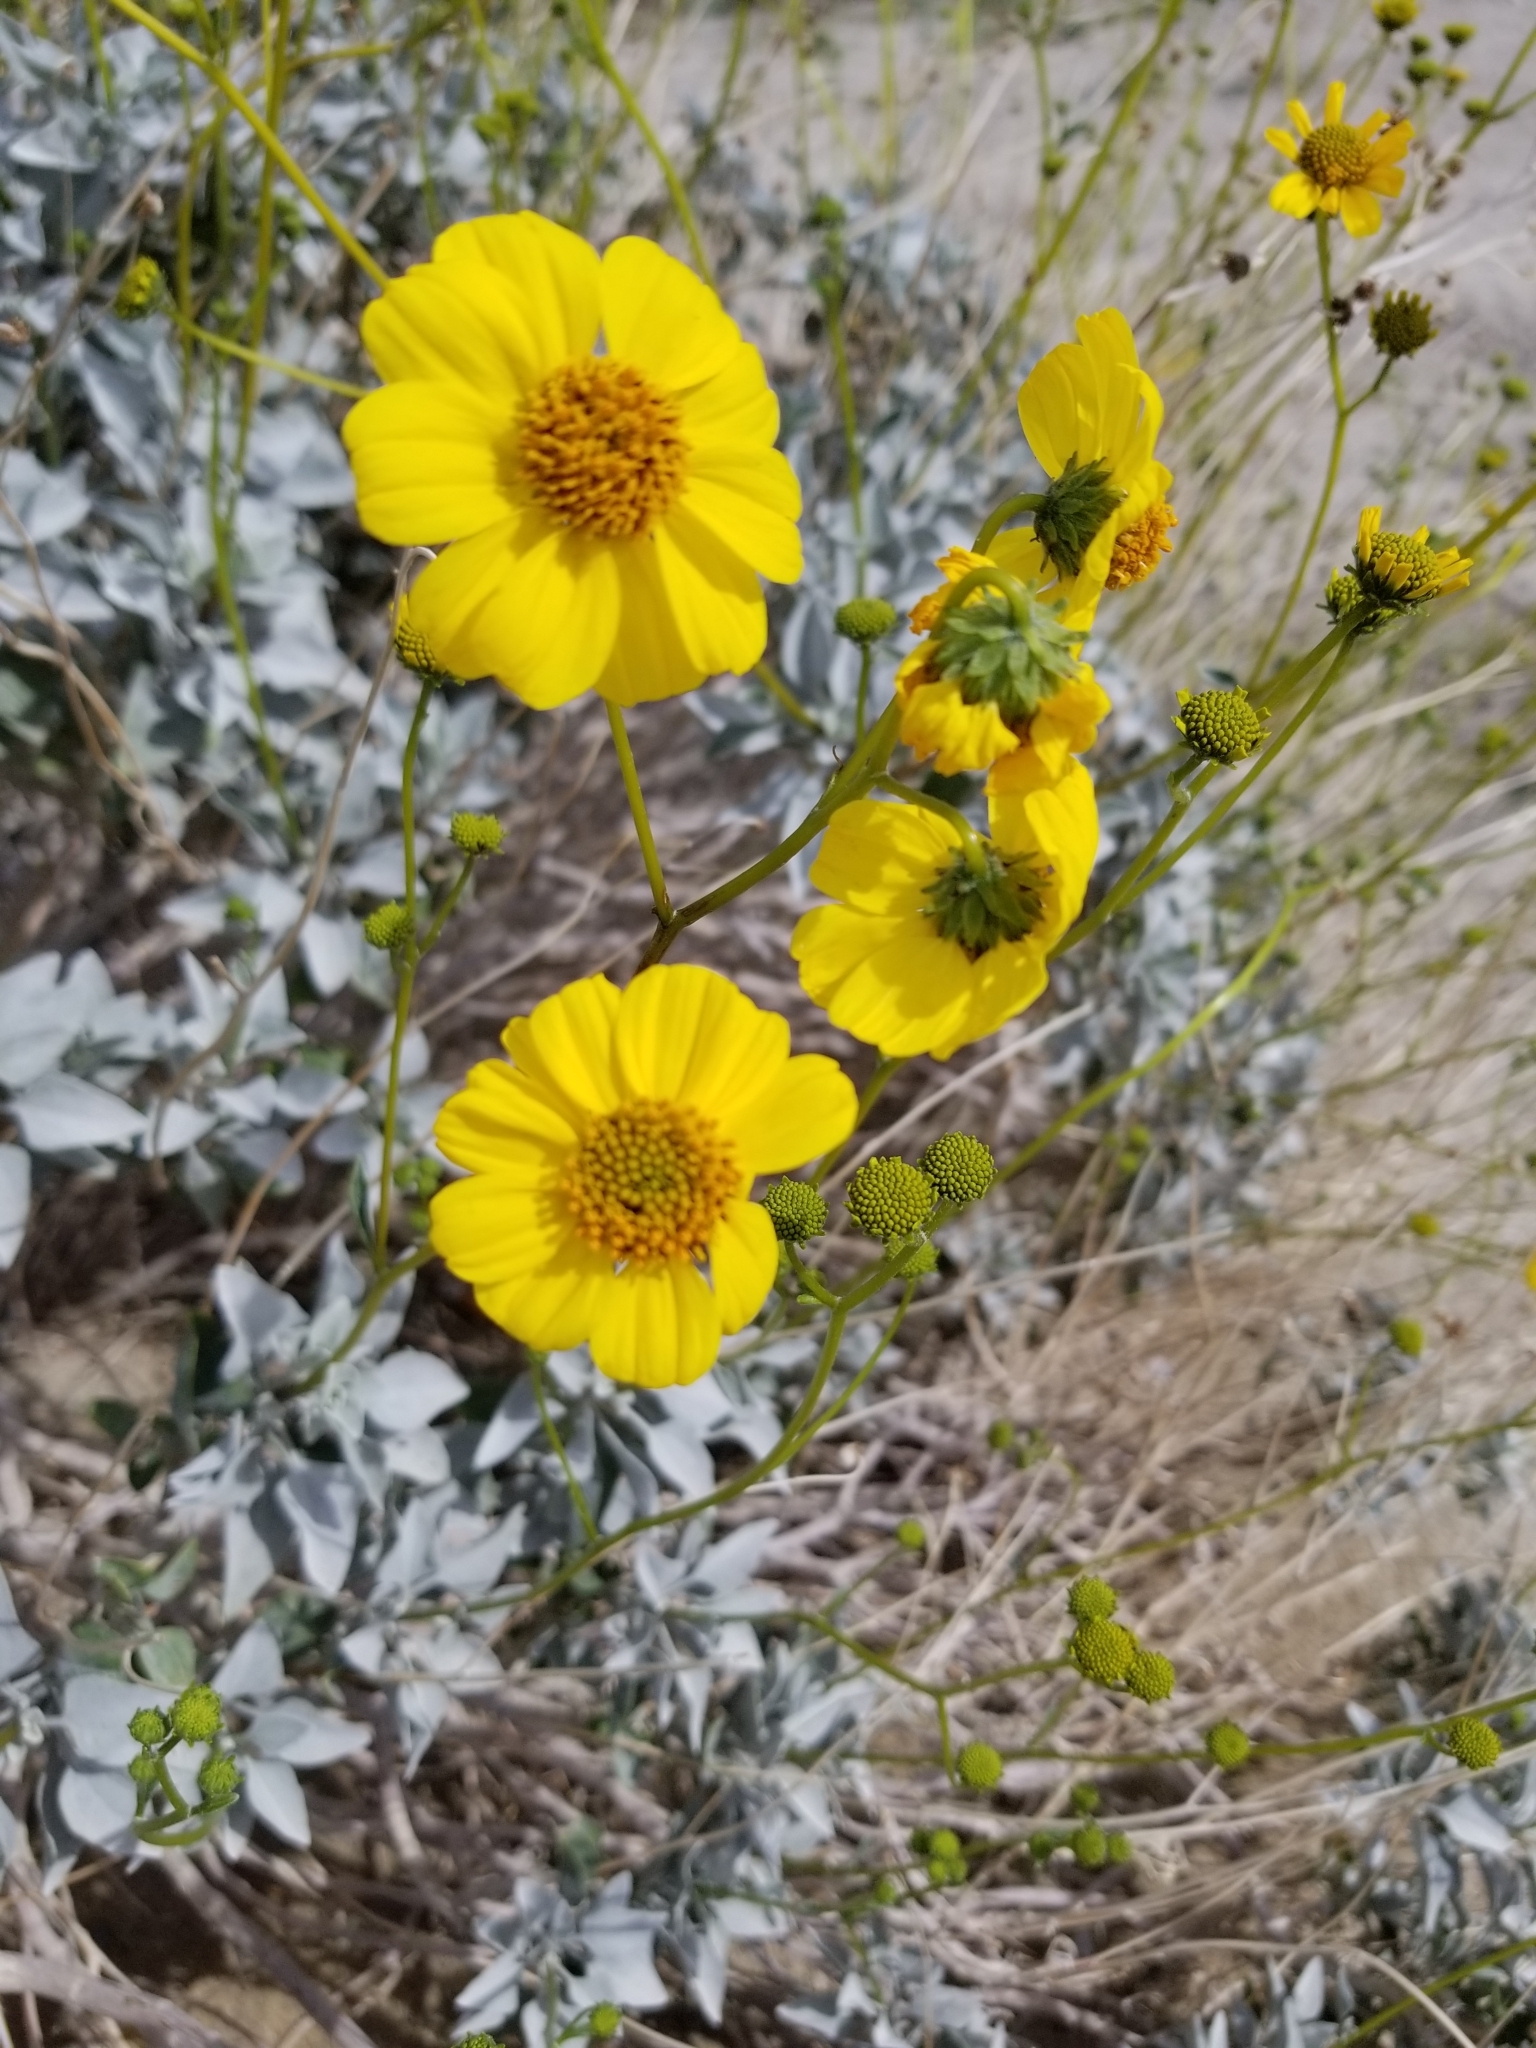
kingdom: Plantae
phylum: Tracheophyta
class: Magnoliopsida
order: Asterales
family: Asteraceae
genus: Encelia
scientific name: Encelia farinosa
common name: Brittlebush
